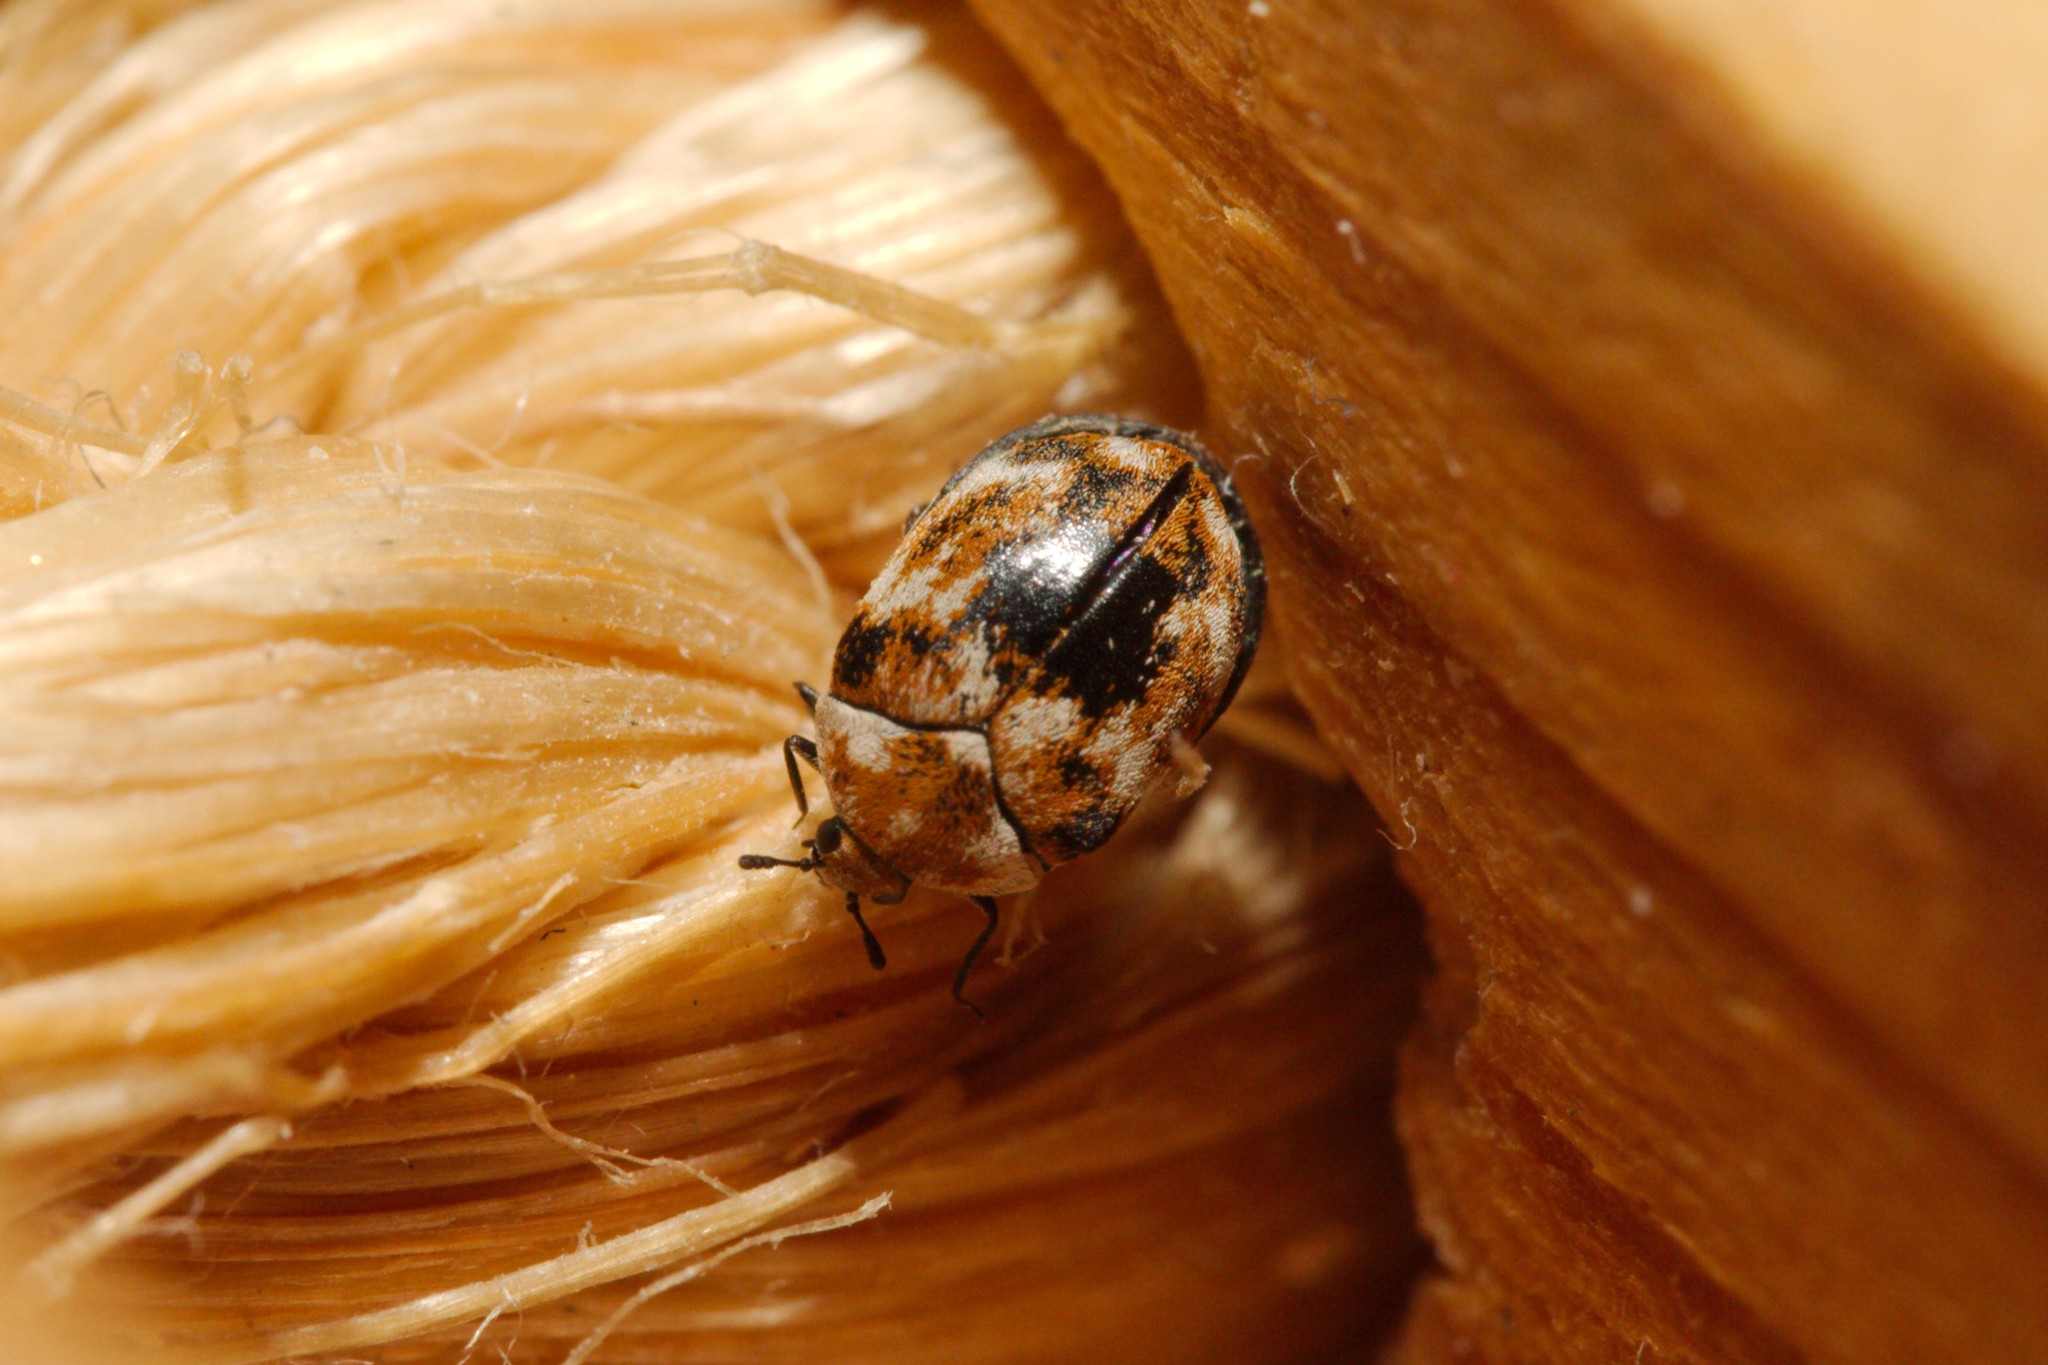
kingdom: Animalia
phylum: Arthropoda
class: Insecta
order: Coleoptera
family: Dermestidae
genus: Anthrenus
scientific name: Anthrenus verbasci
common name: Varied carpet beetle
